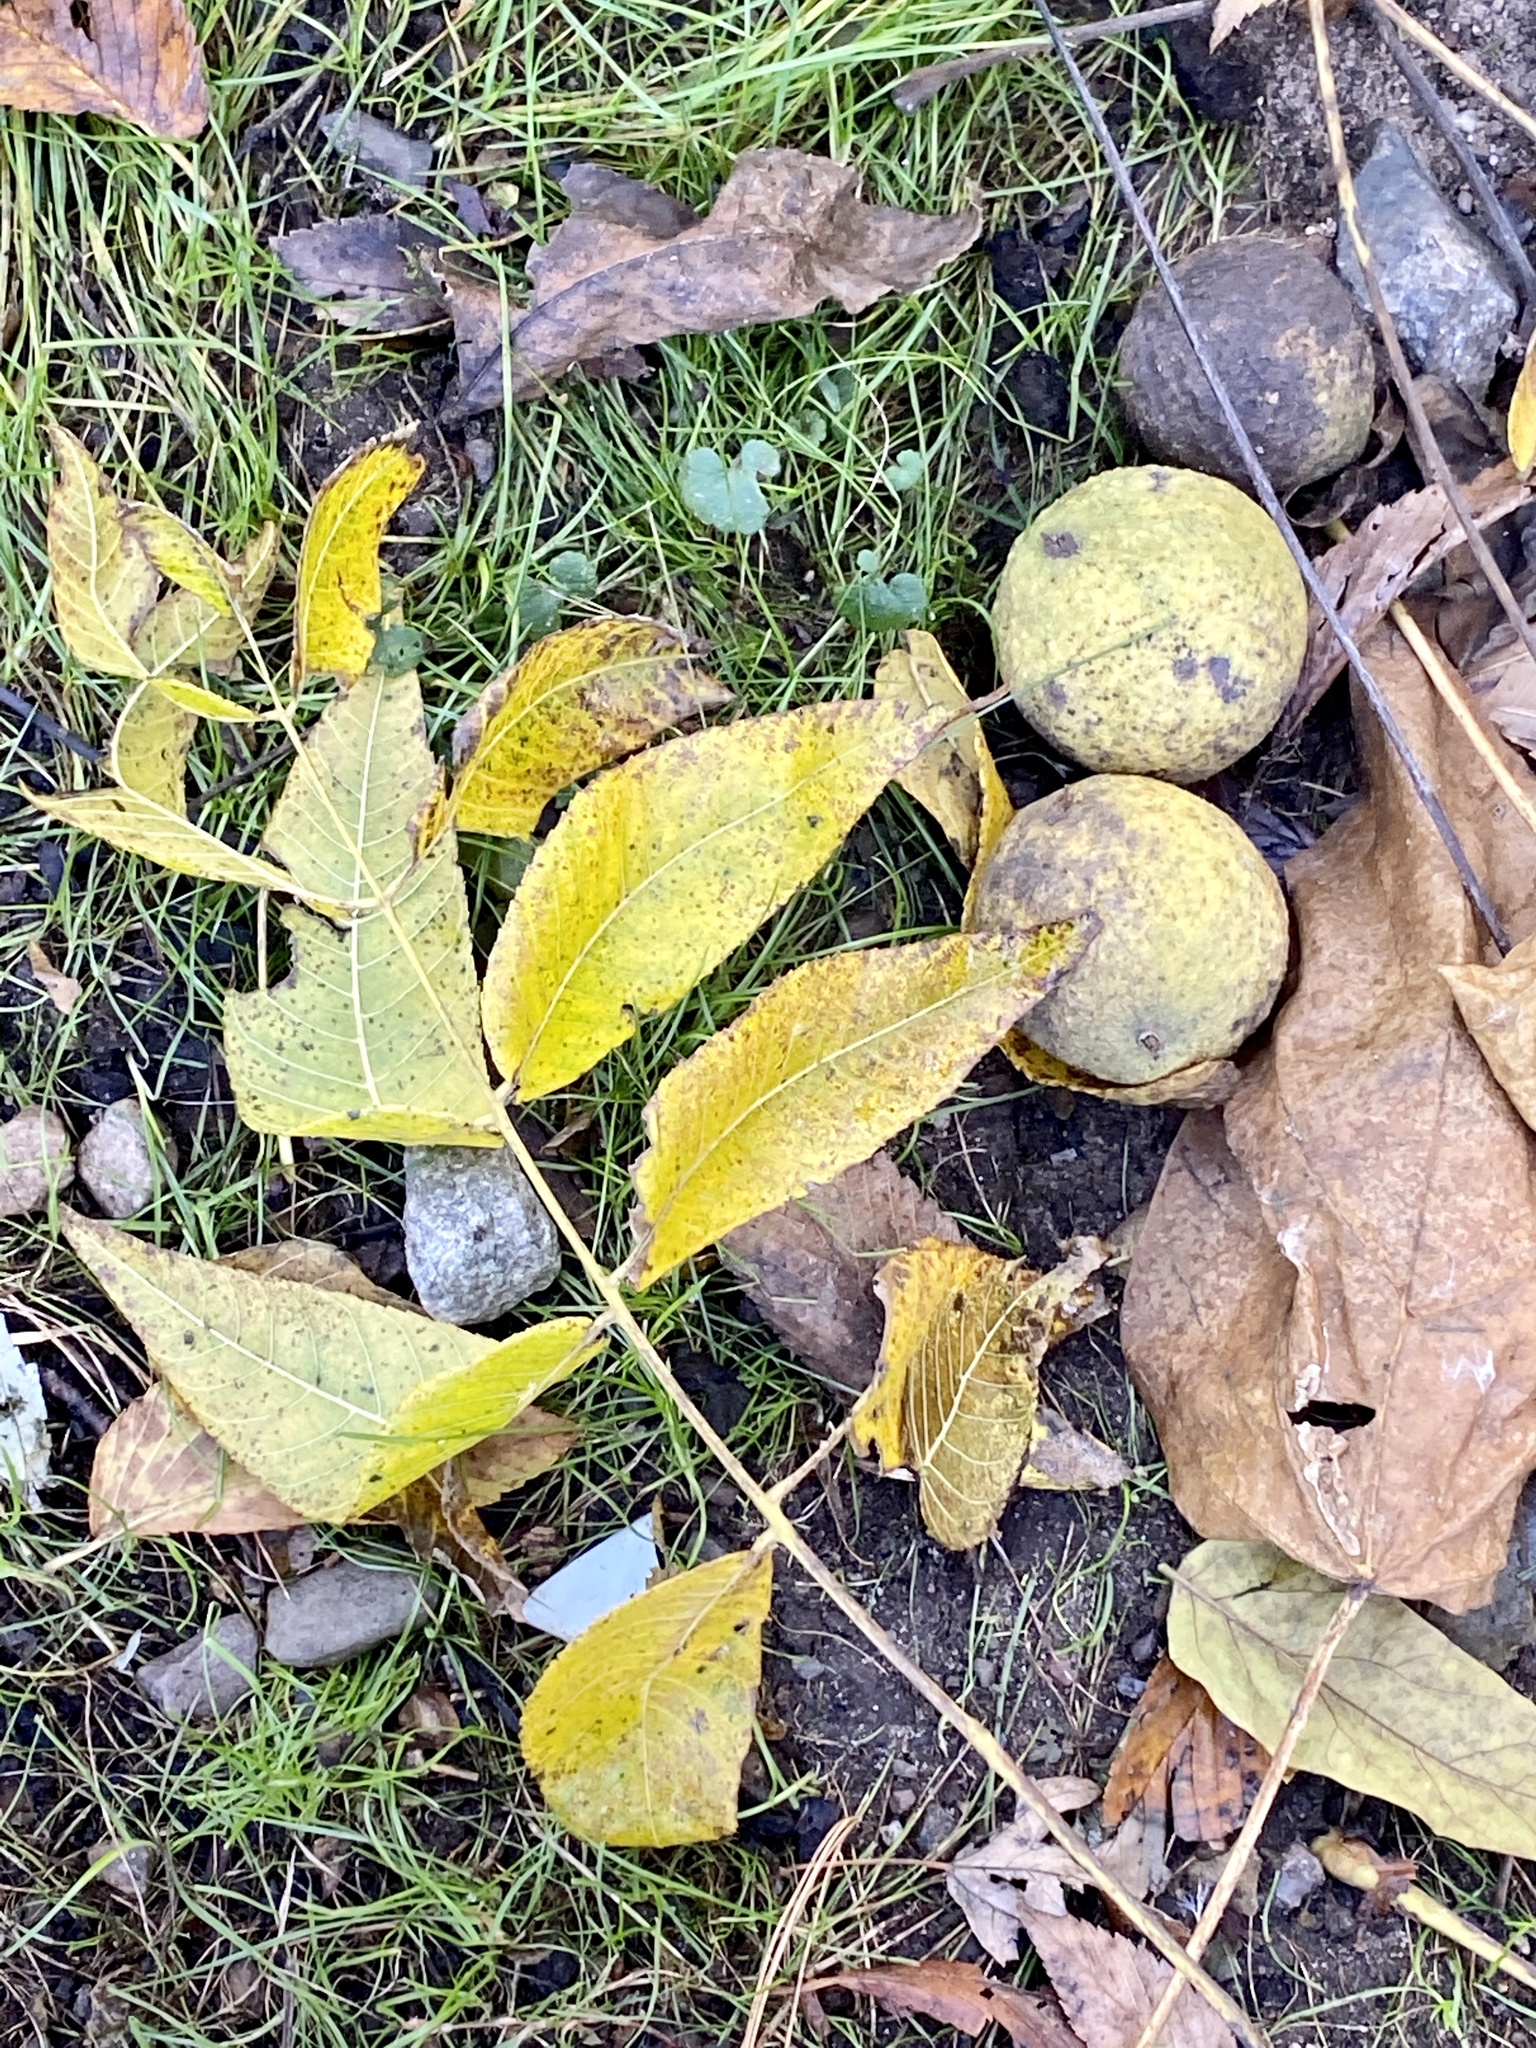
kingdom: Plantae
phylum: Tracheophyta
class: Magnoliopsida
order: Fagales
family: Juglandaceae
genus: Juglans
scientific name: Juglans nigra
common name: Black walnut
